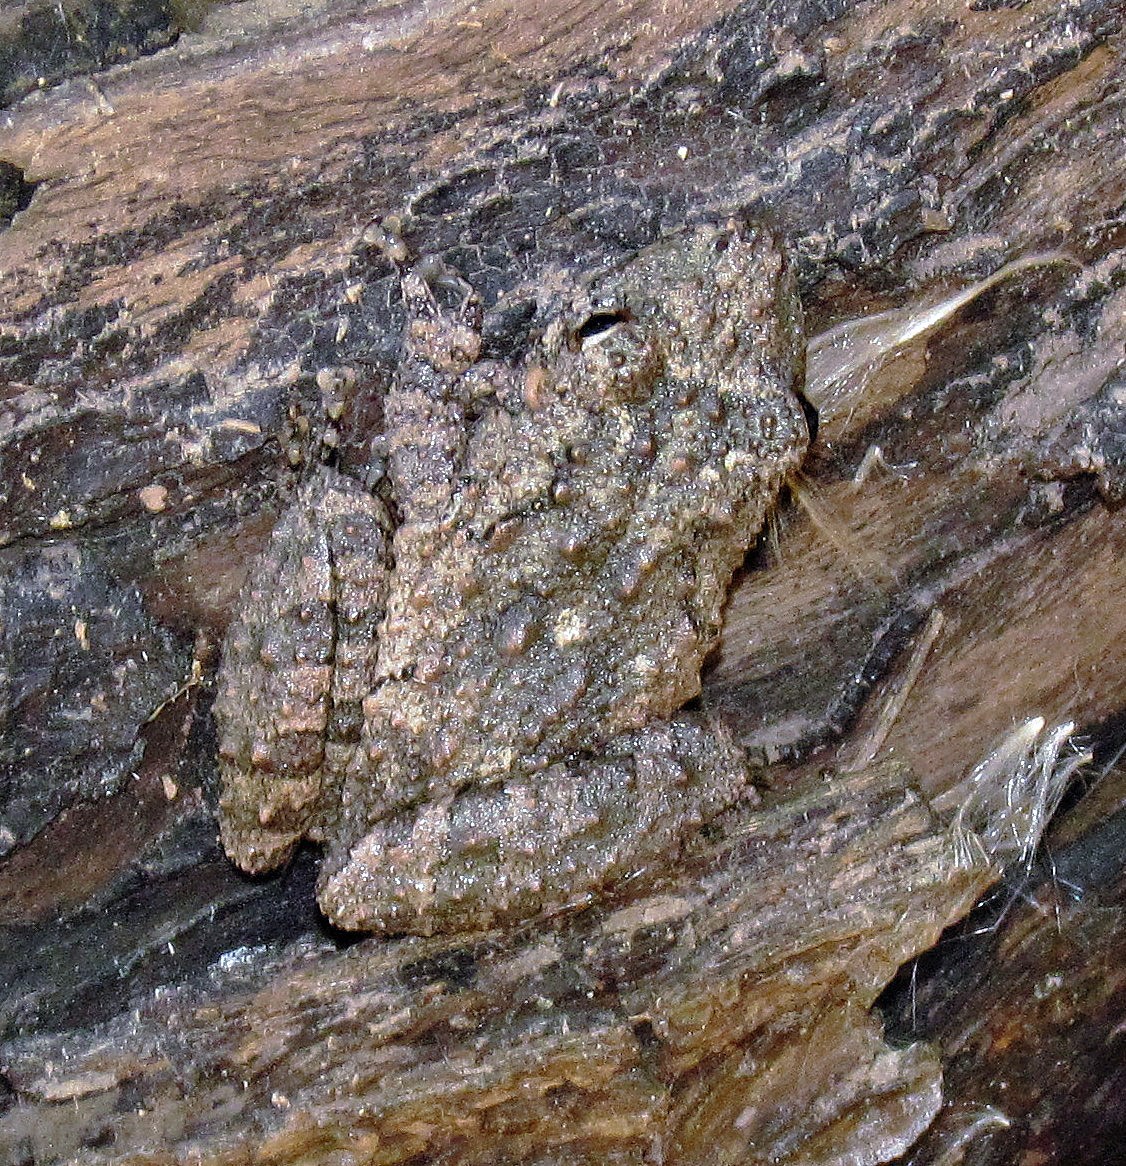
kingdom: Animalia
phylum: Chordata
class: Amphibia
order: Anura
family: Hylidae
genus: Scinax
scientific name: Scinax acuminatus
